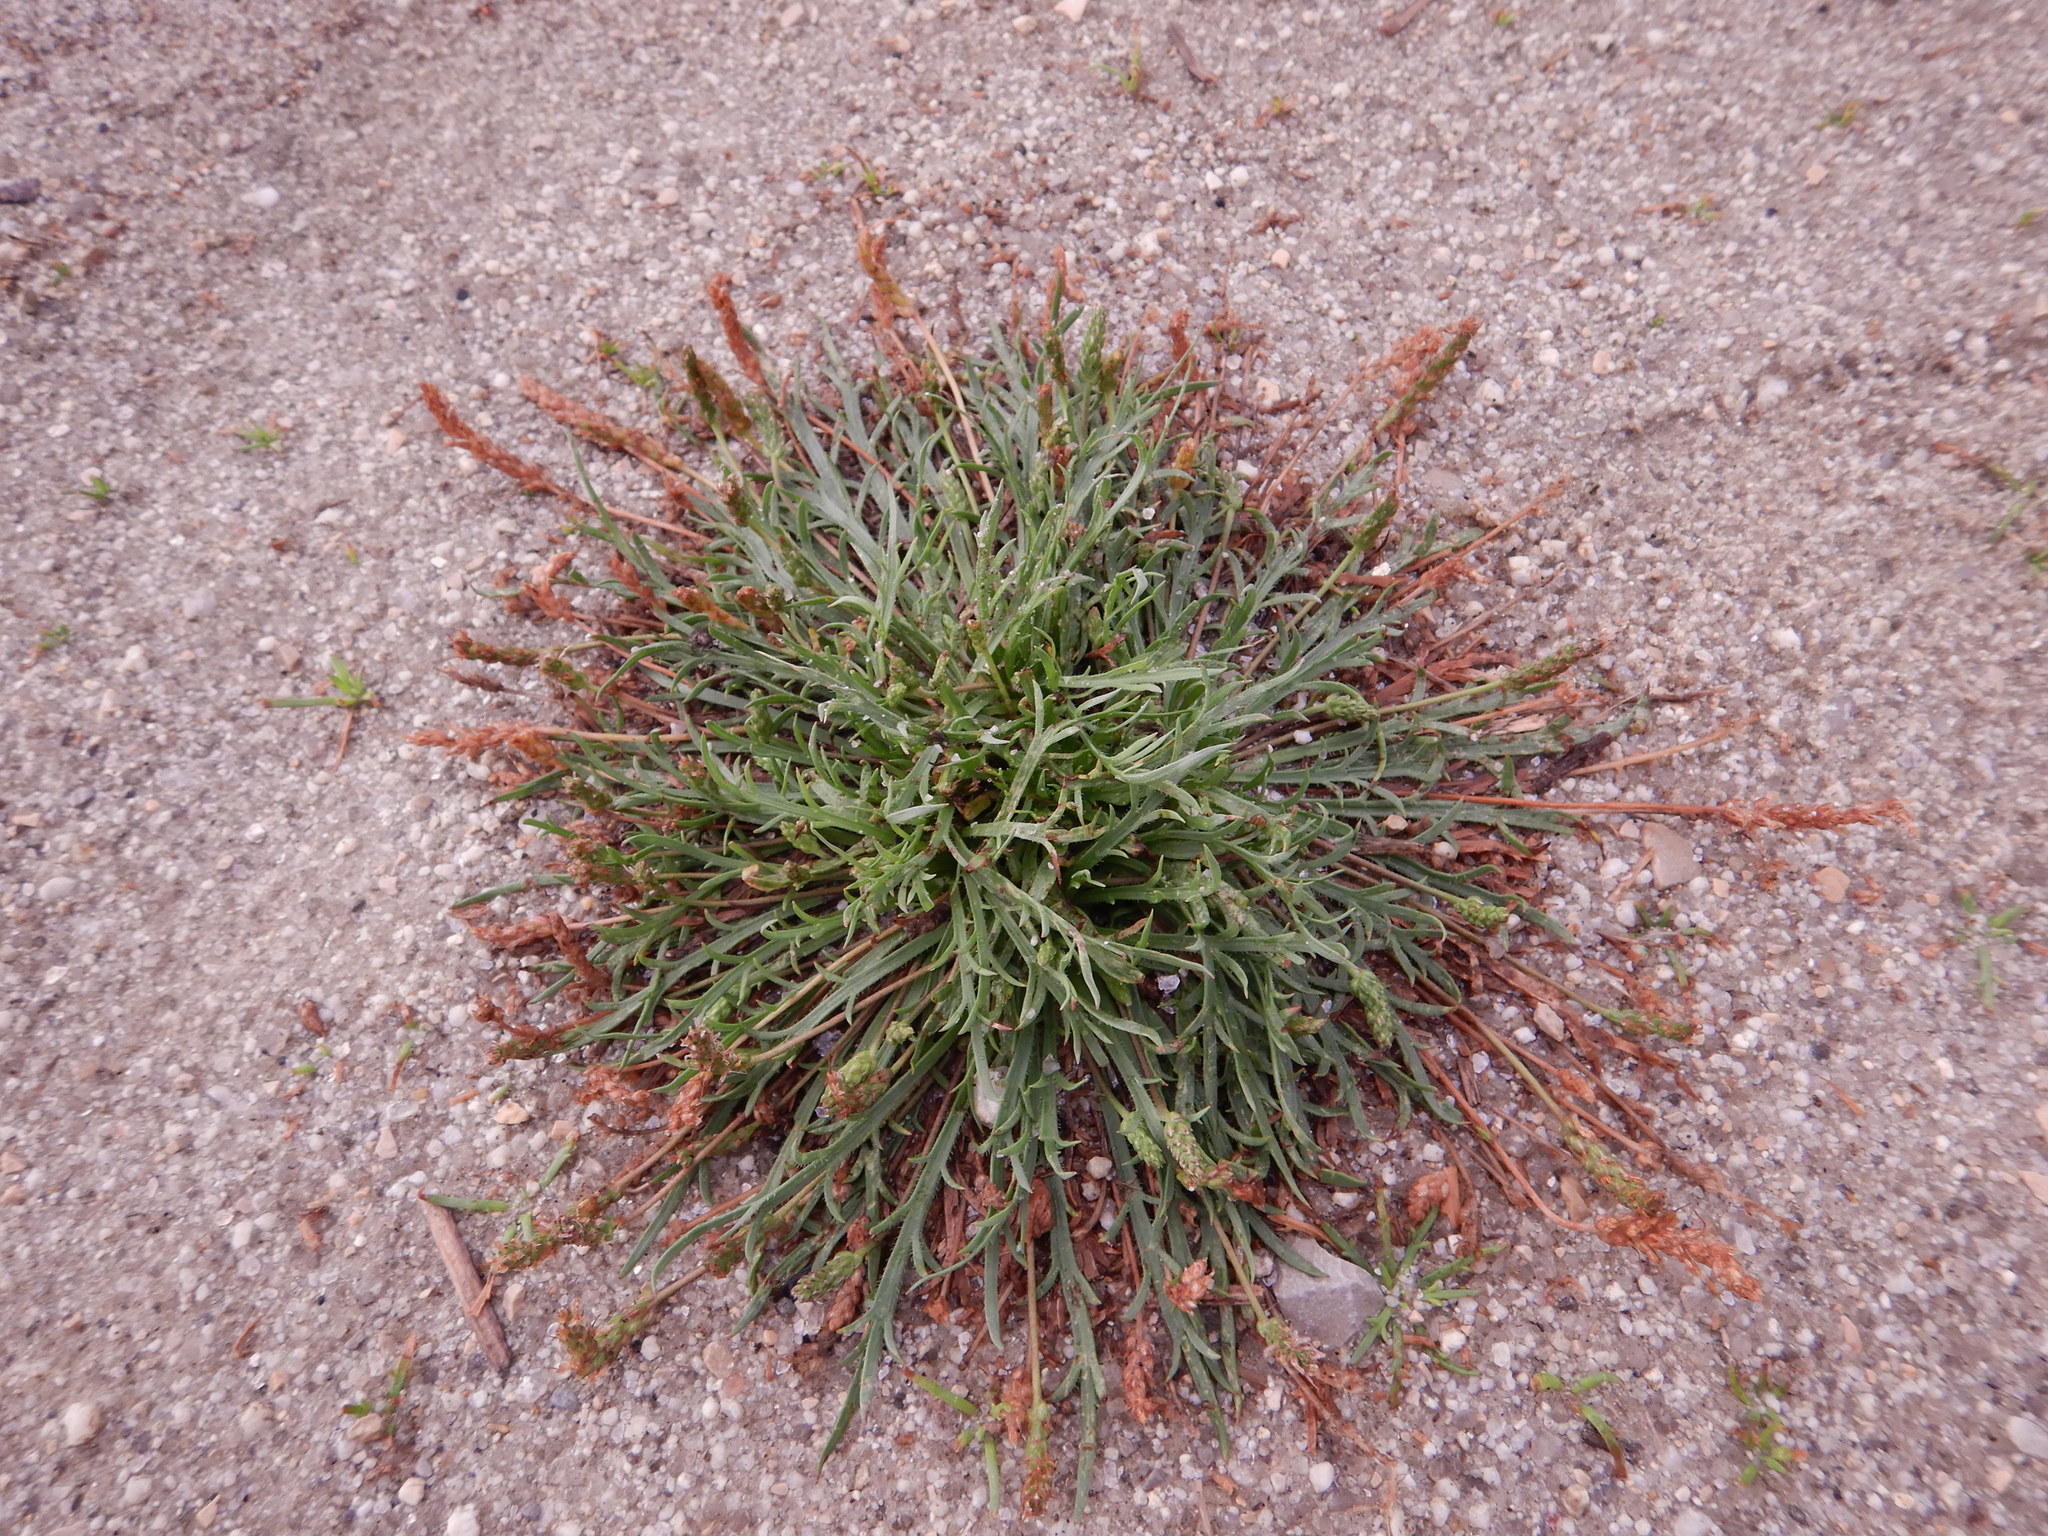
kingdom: Plantae
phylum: Tracheophyta
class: Magnoliopsida
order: Lamiales
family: Plantaginaceae
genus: Plantago
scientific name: Plantago coronopus
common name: Buck's-horn plantain
